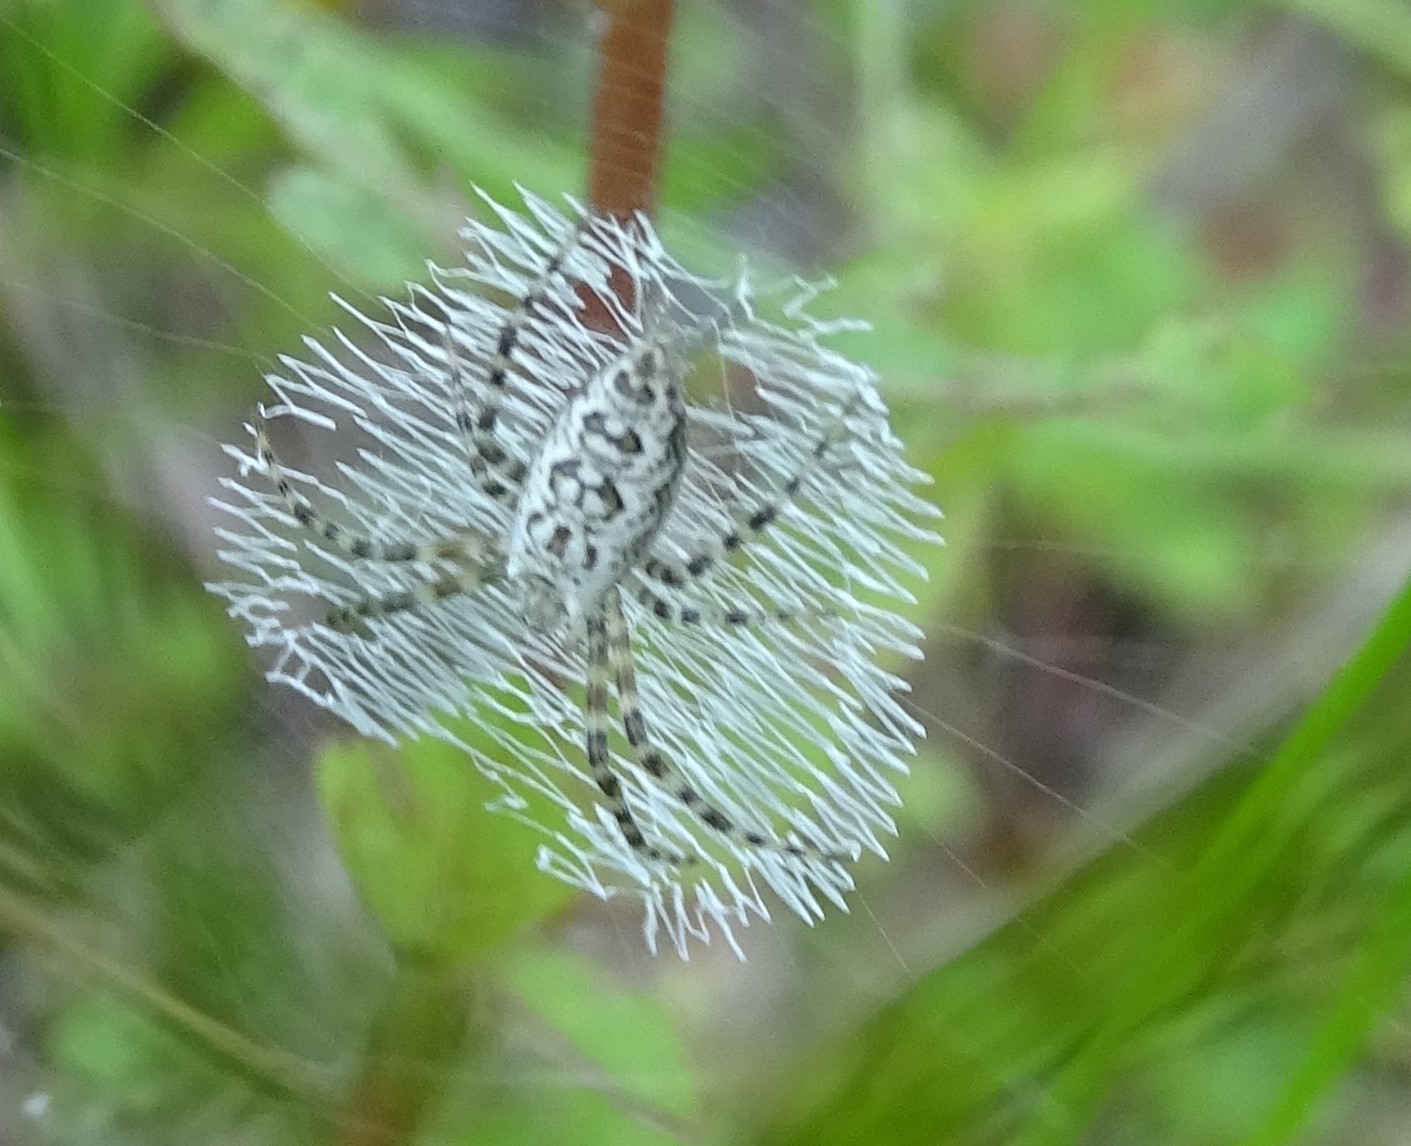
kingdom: Animalia
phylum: Arthropoda
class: Arachnida
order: Araneae
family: Araneidae
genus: Argiope
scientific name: Argiope aurantia
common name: Orb weavers
